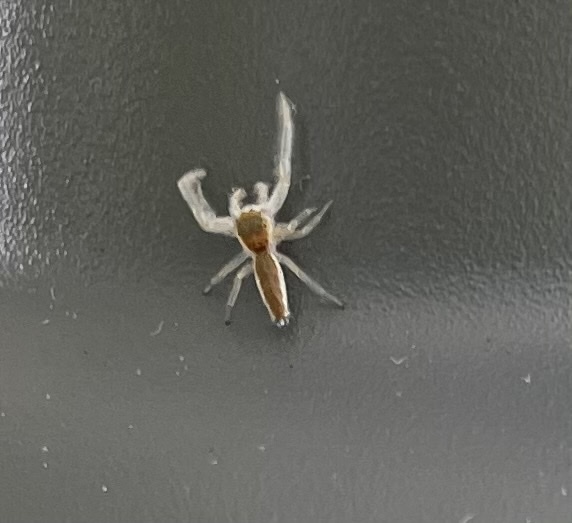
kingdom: Animalia
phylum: Arthropoda
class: Arachnida
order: Araneae
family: Salticidae
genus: Hentzia
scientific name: Hentzia mitrata
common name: White-jawed jumping spider
